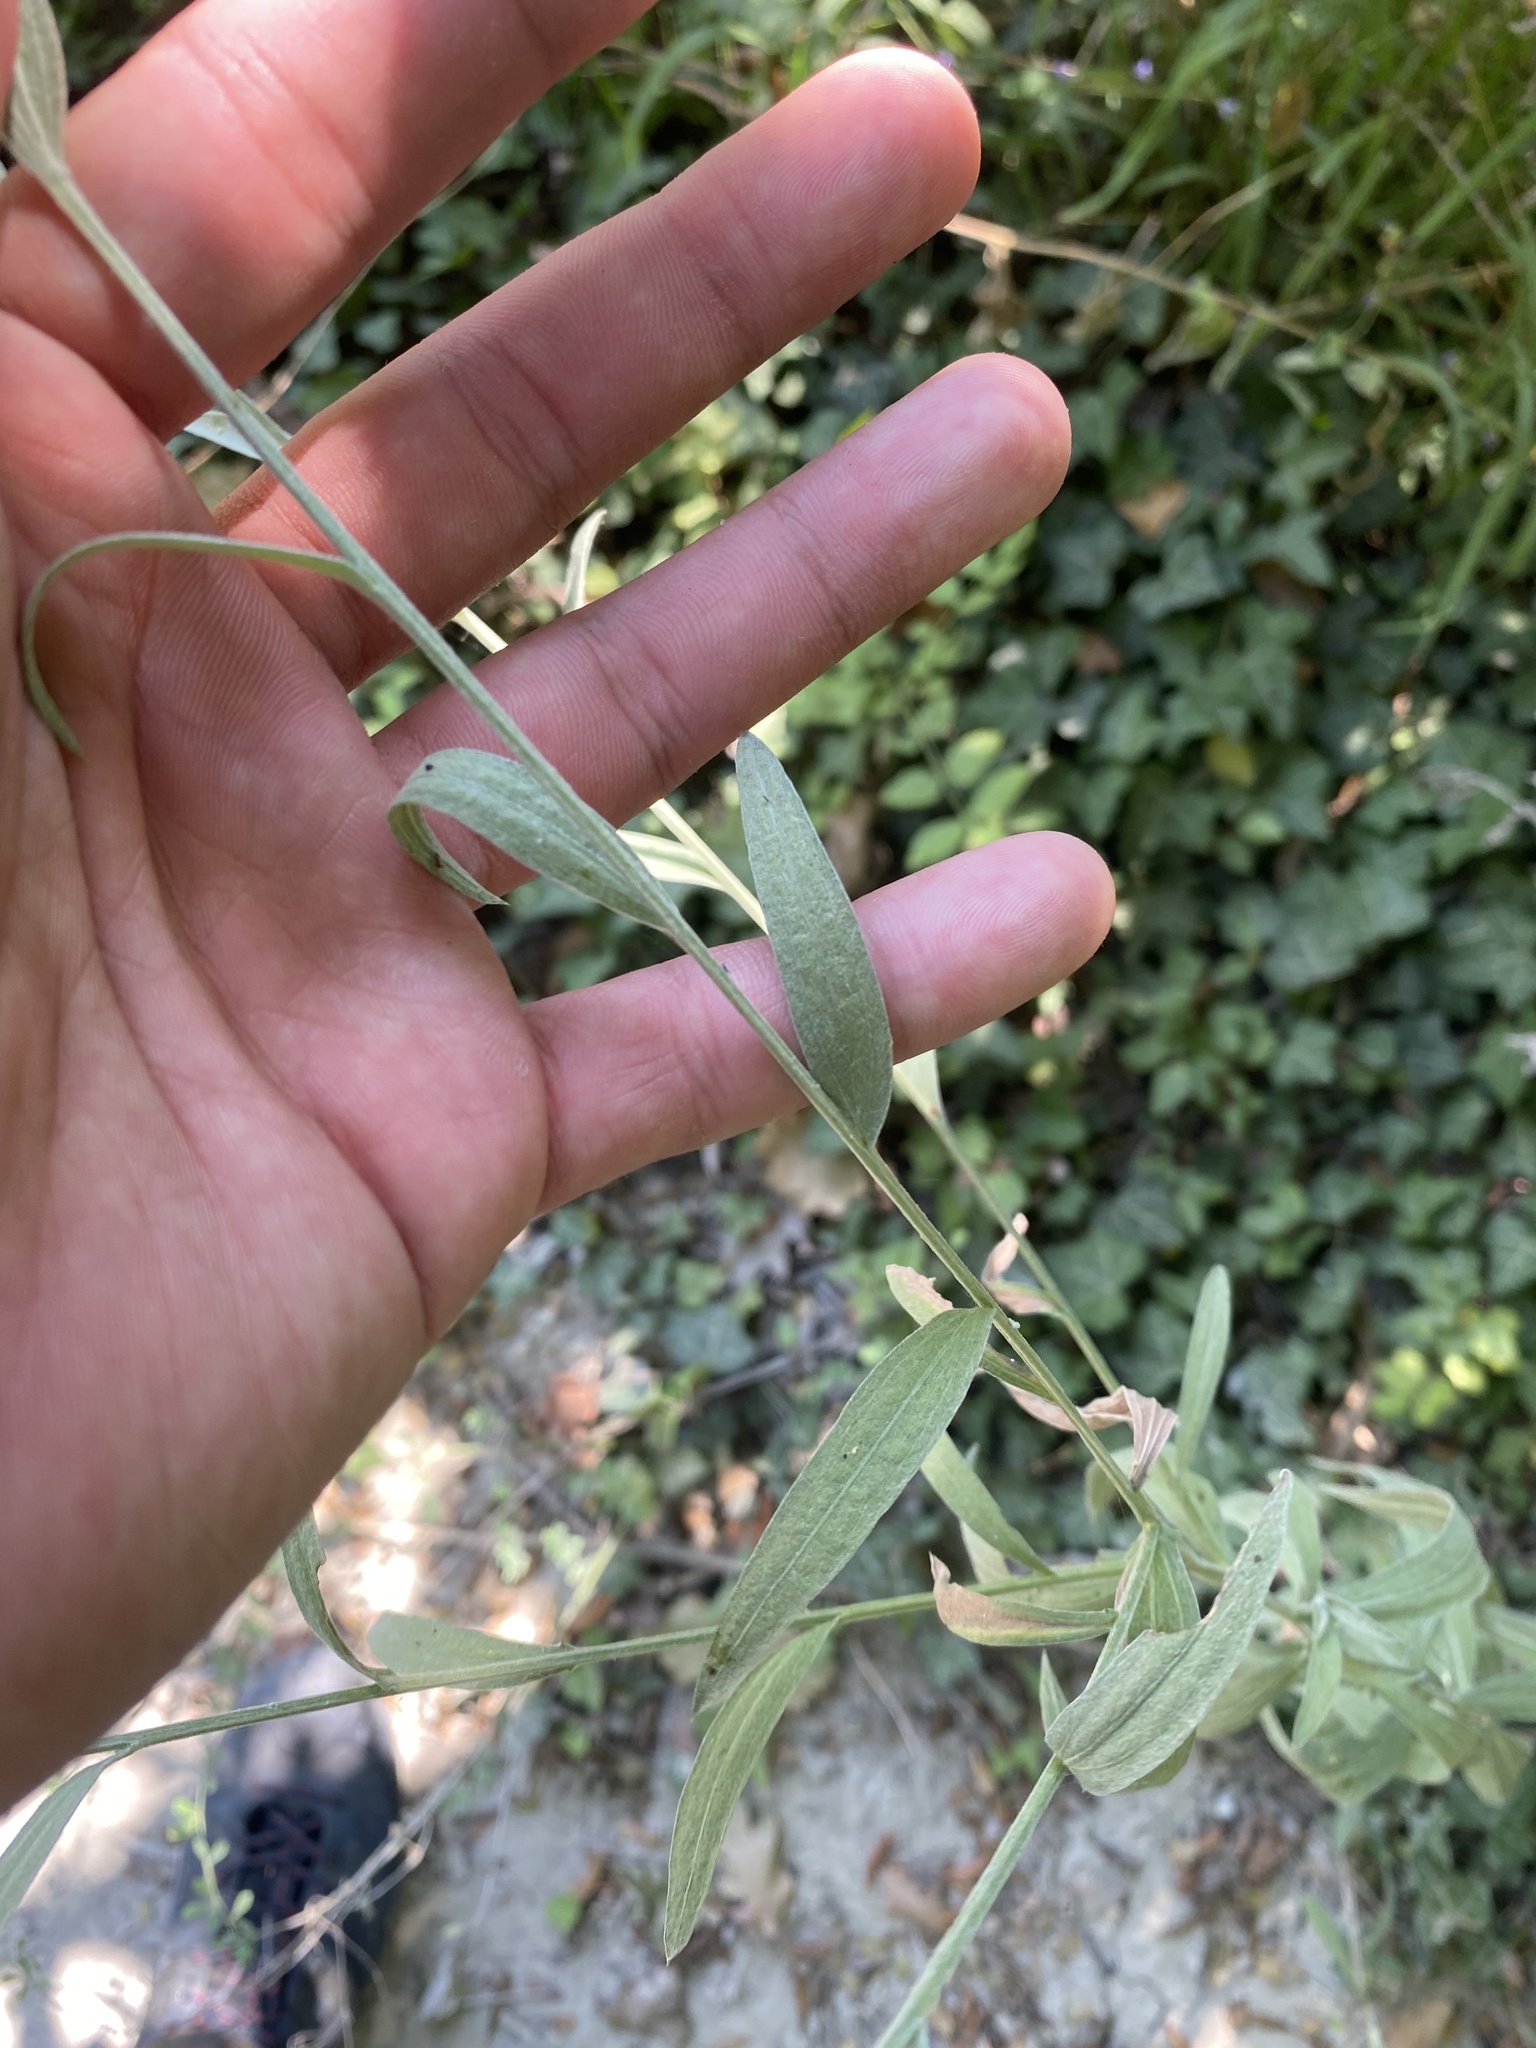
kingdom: Plantae
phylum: Tracheophyta
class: Magnoliopsida
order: Asterales
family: Asteraceae
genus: Centaurea
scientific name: Centaurea jacea
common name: Brown knapweed
